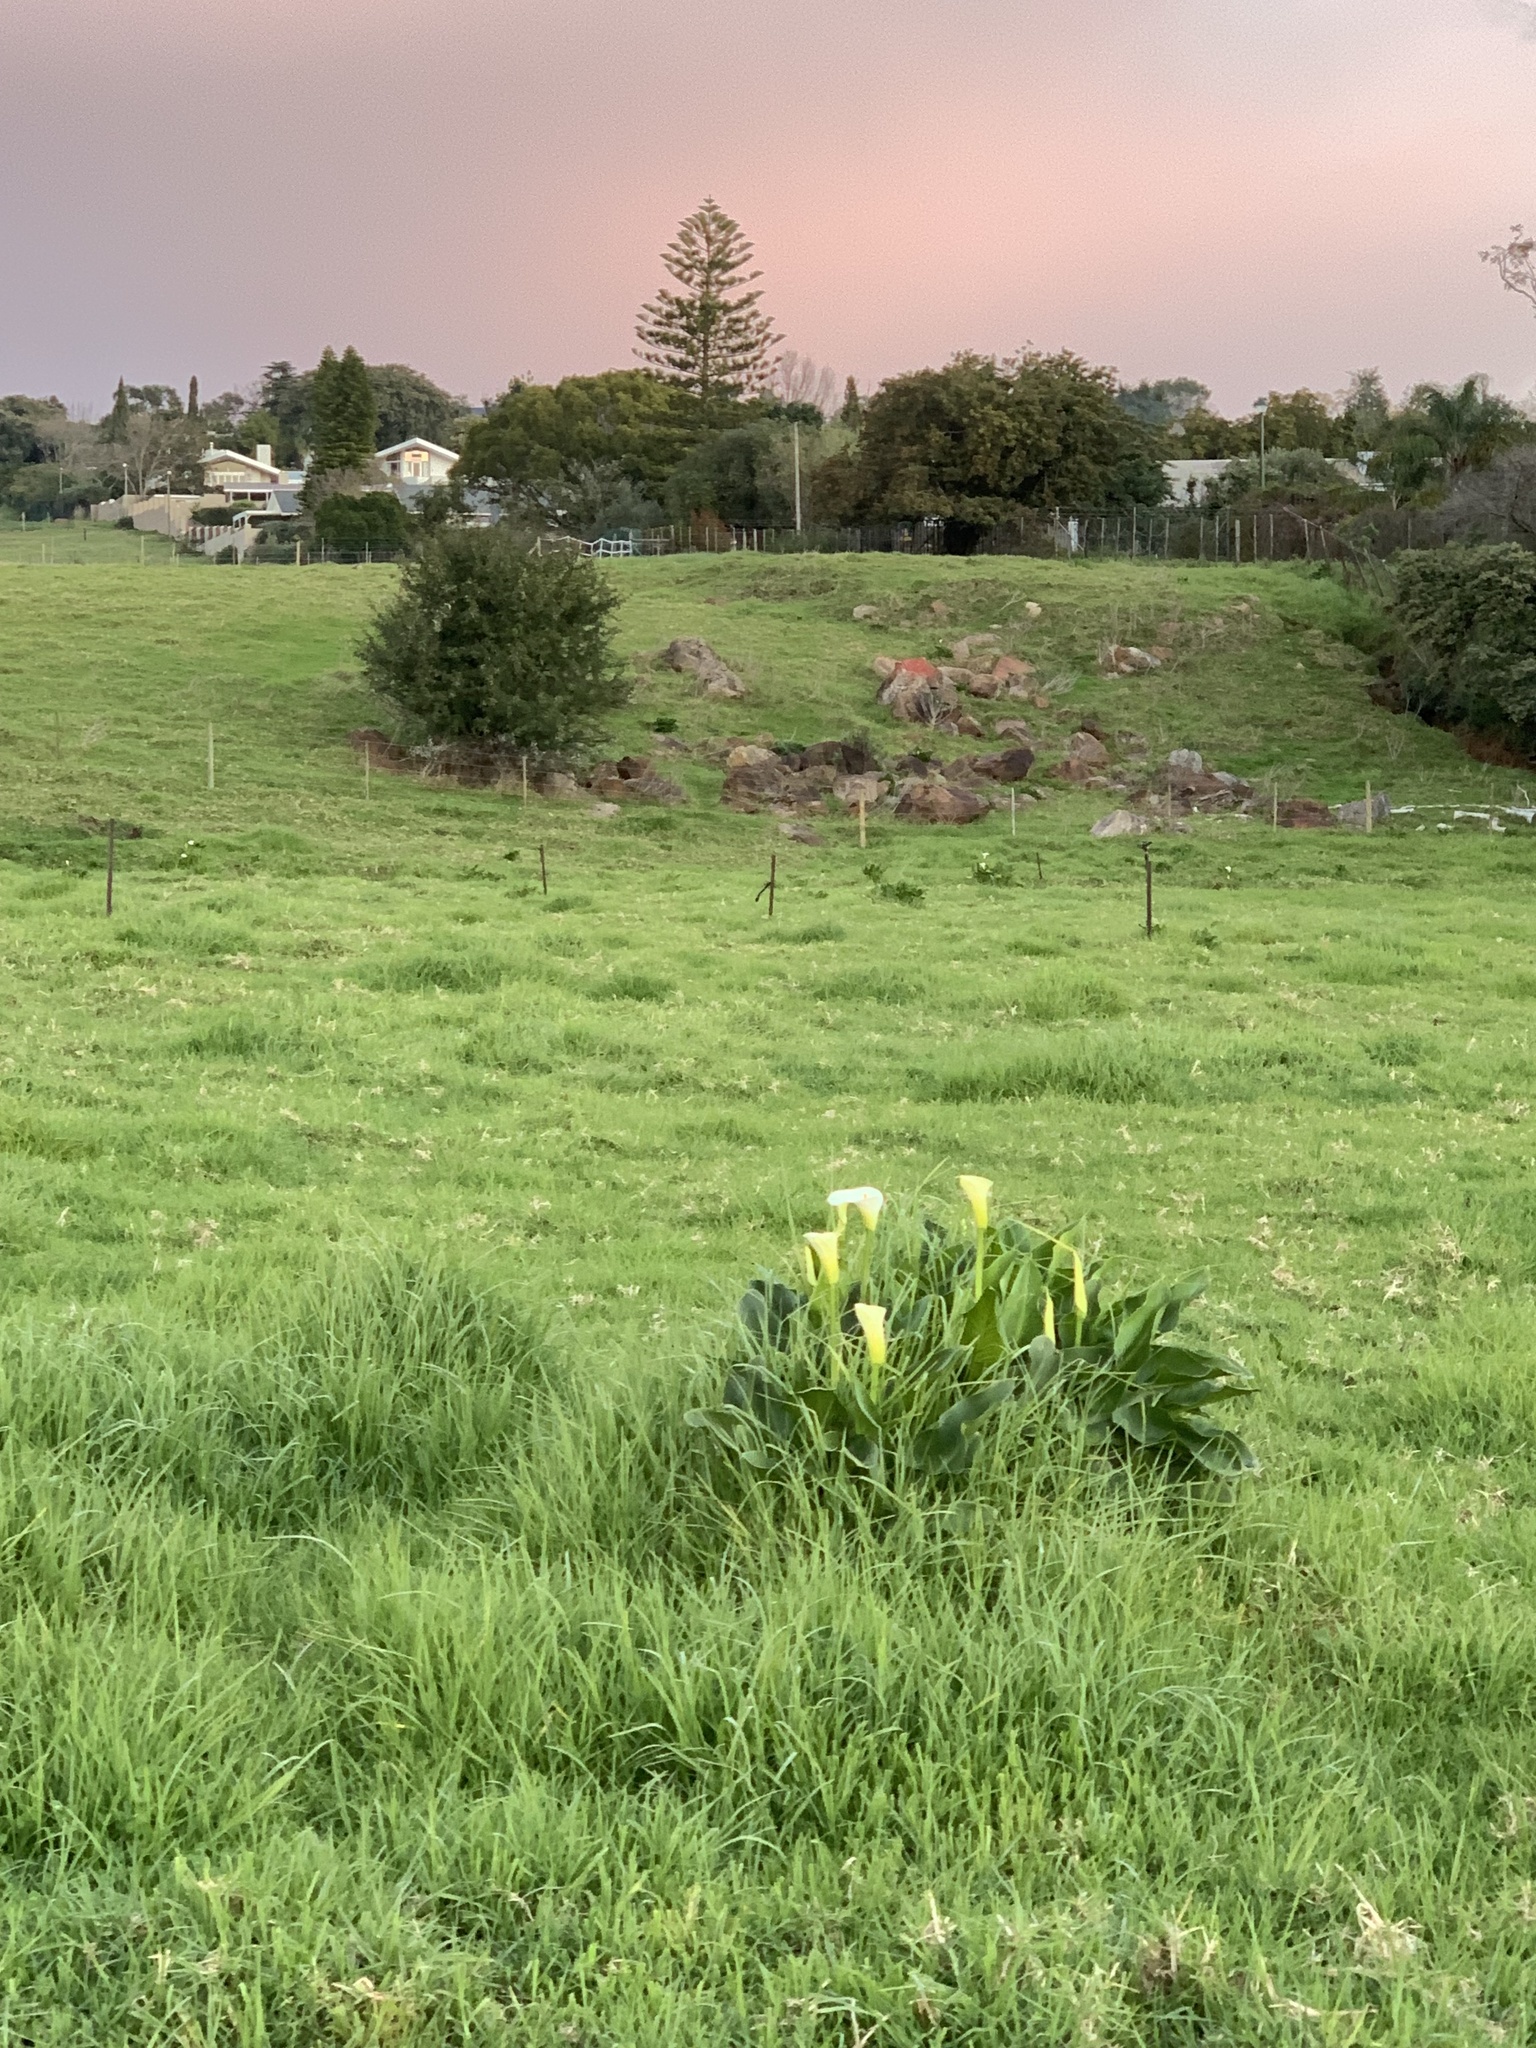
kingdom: Plantae
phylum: Tracheophyta
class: Liliopsida
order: Alismatales
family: Araceae
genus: Zantedeschia
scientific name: Zantedeschia aethiopica
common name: Altar-lily
